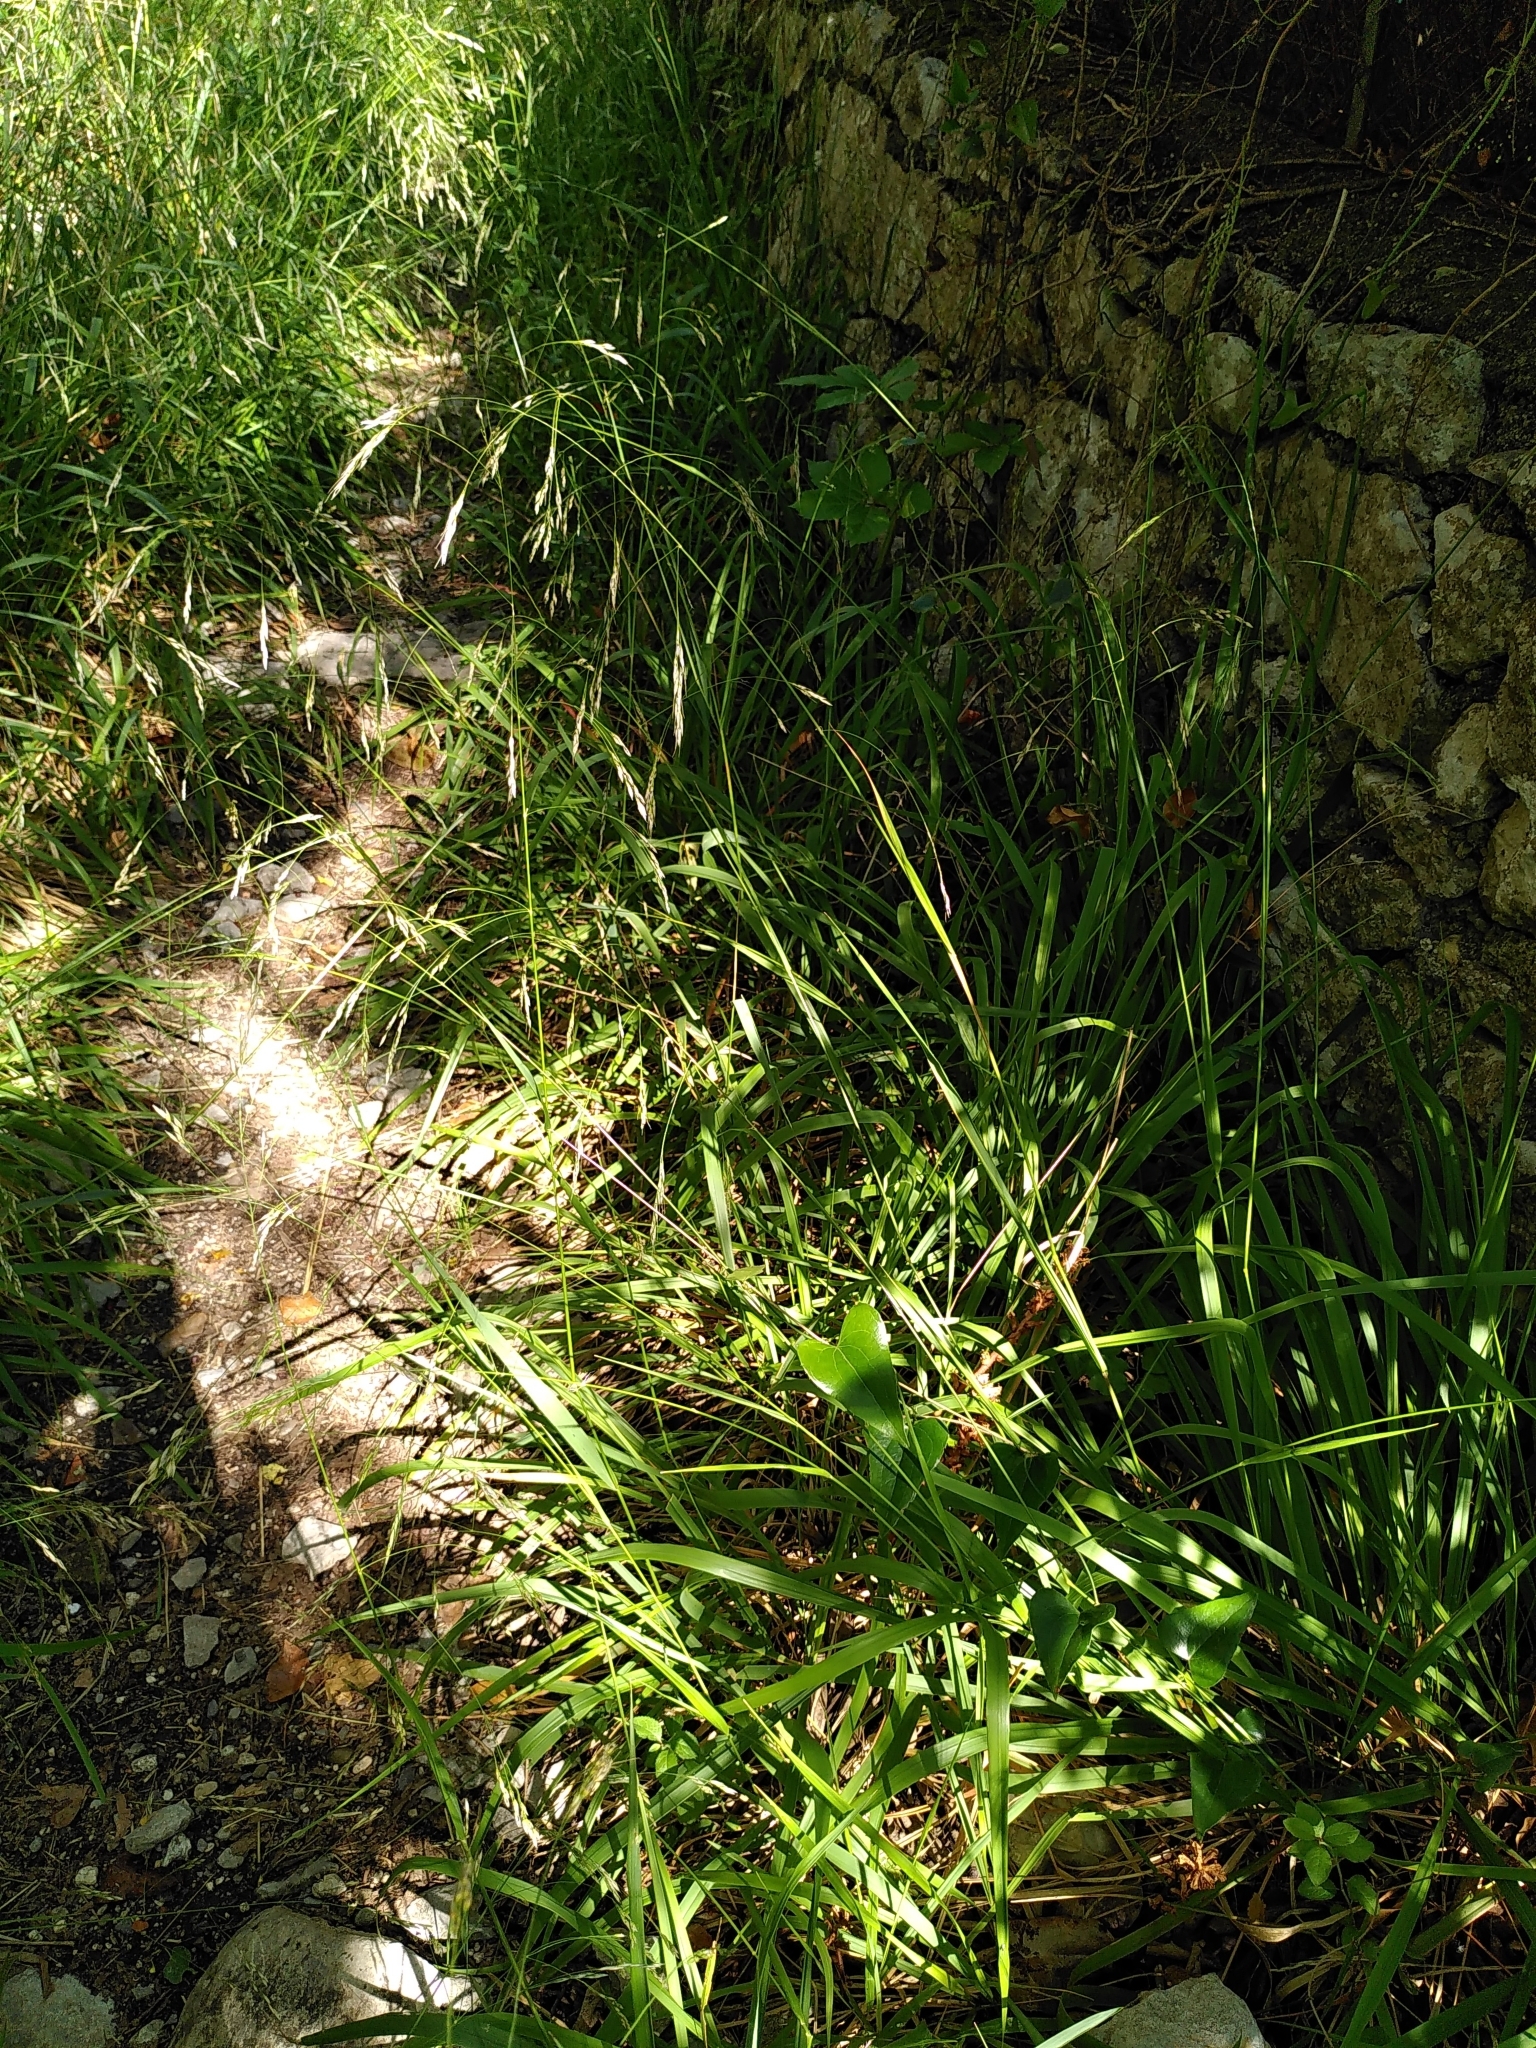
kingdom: Plantae
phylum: Tracheophyta
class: Liliopsida
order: Poales
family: Poaceae
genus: Oryzopsis
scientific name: Oryzopsis paradoxa
